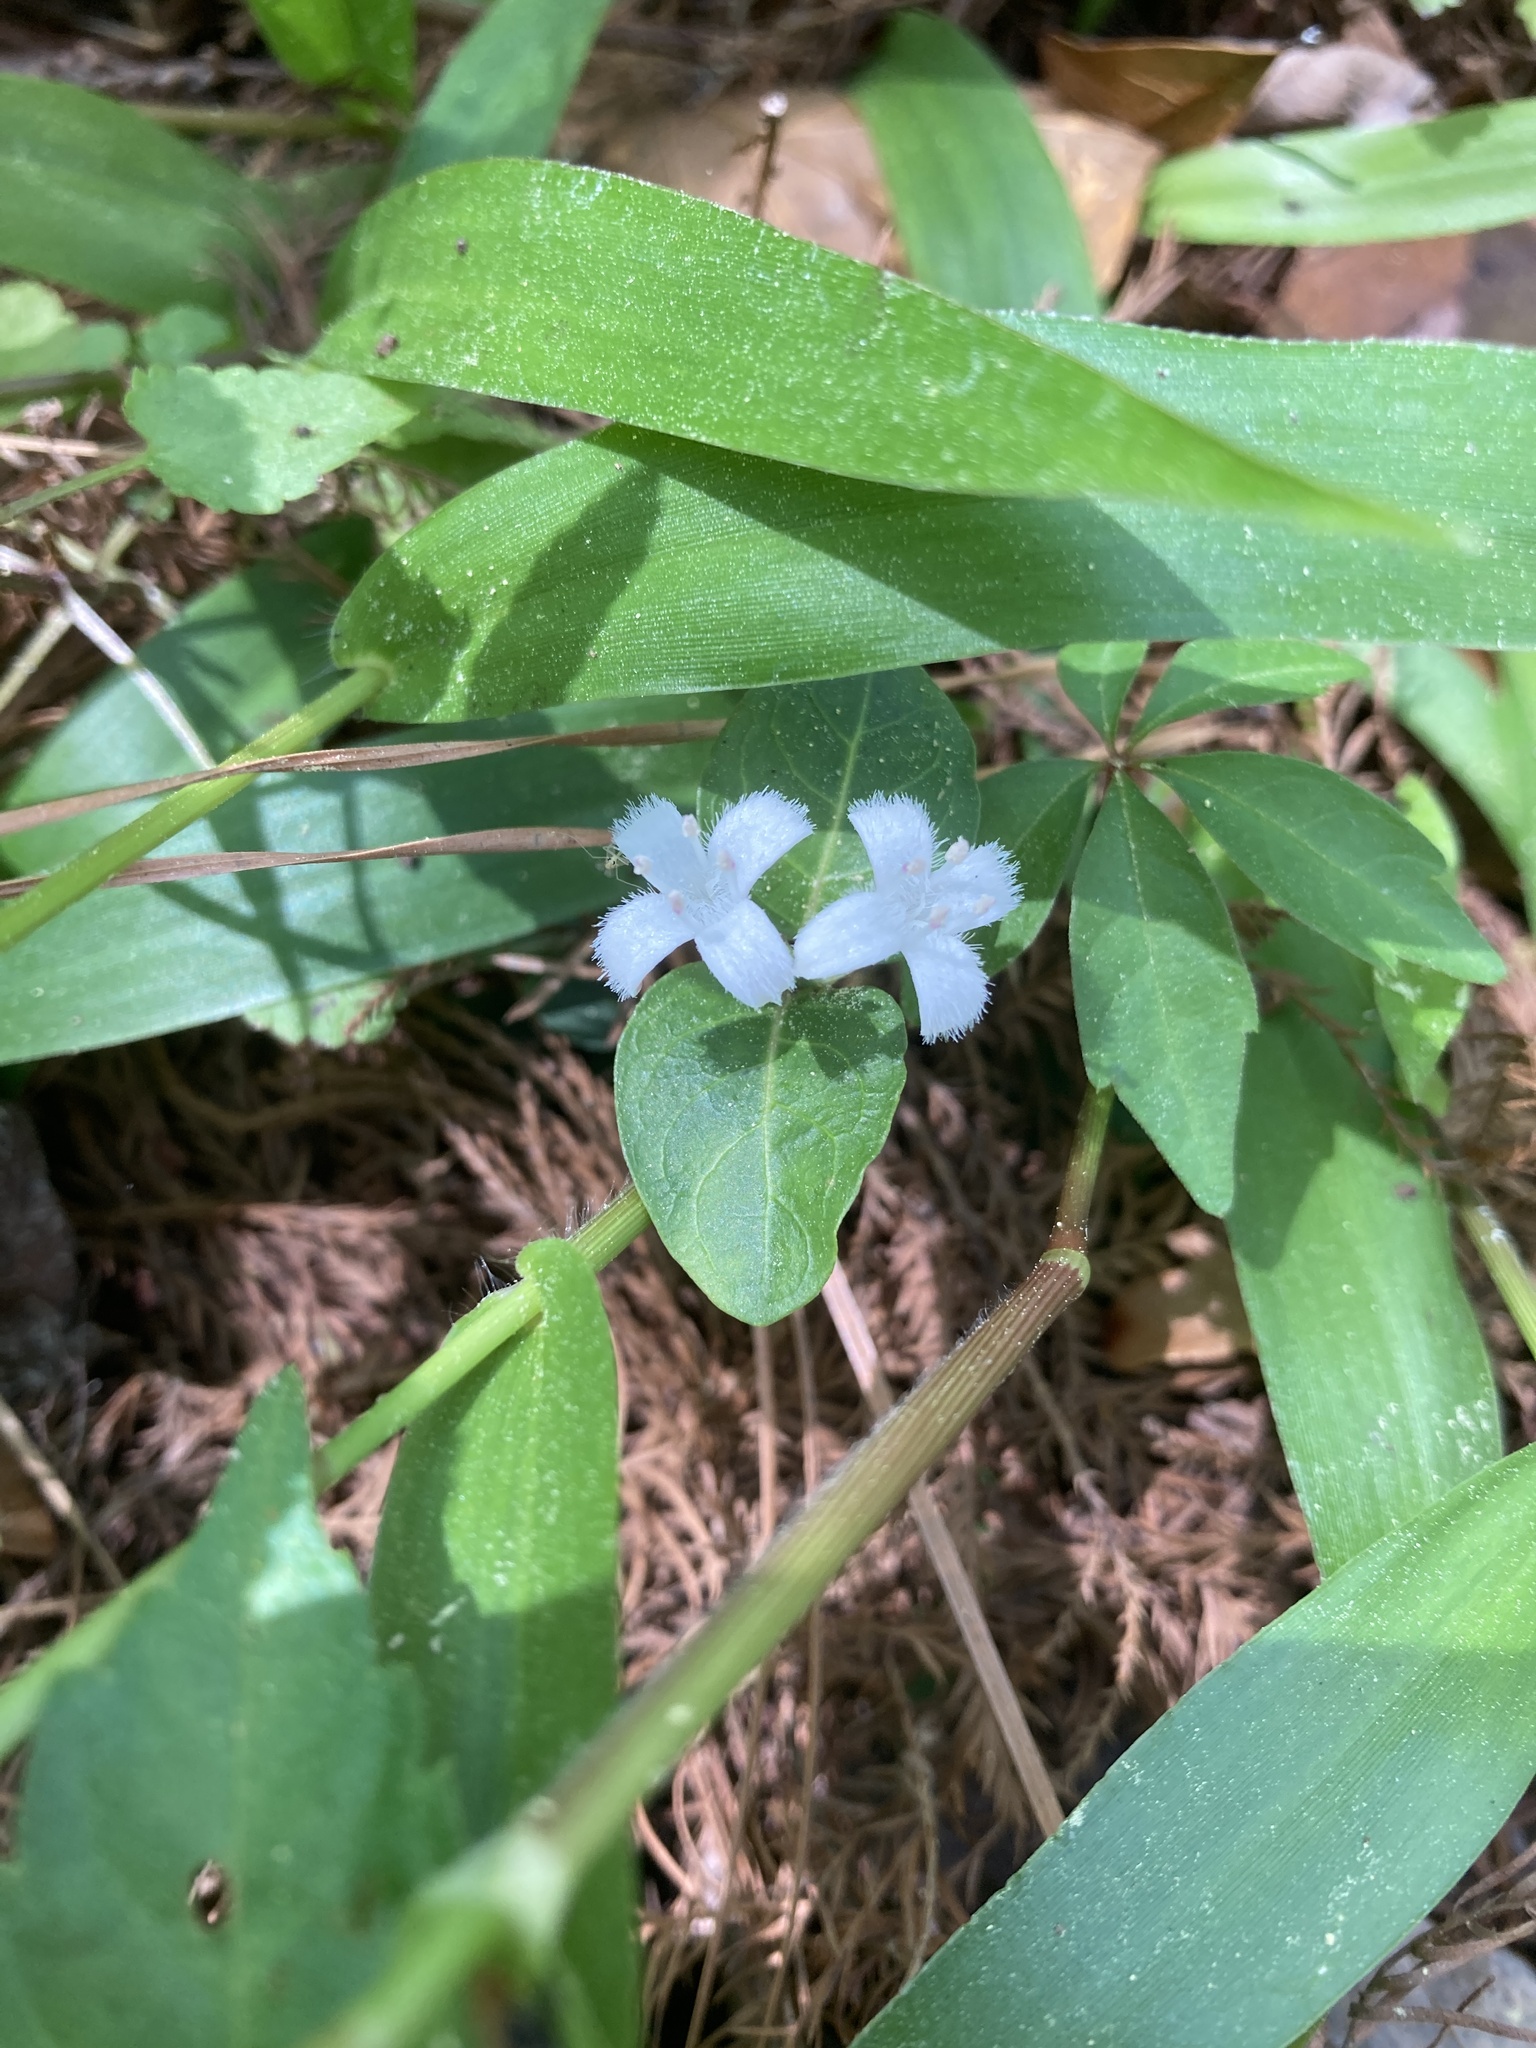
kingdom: Plantae
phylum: Tracheophyta
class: Magnoliopsida
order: Gentianales
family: Rubiaceae
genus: Mitchella
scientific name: Mitchella repens
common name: Partridge-berry
